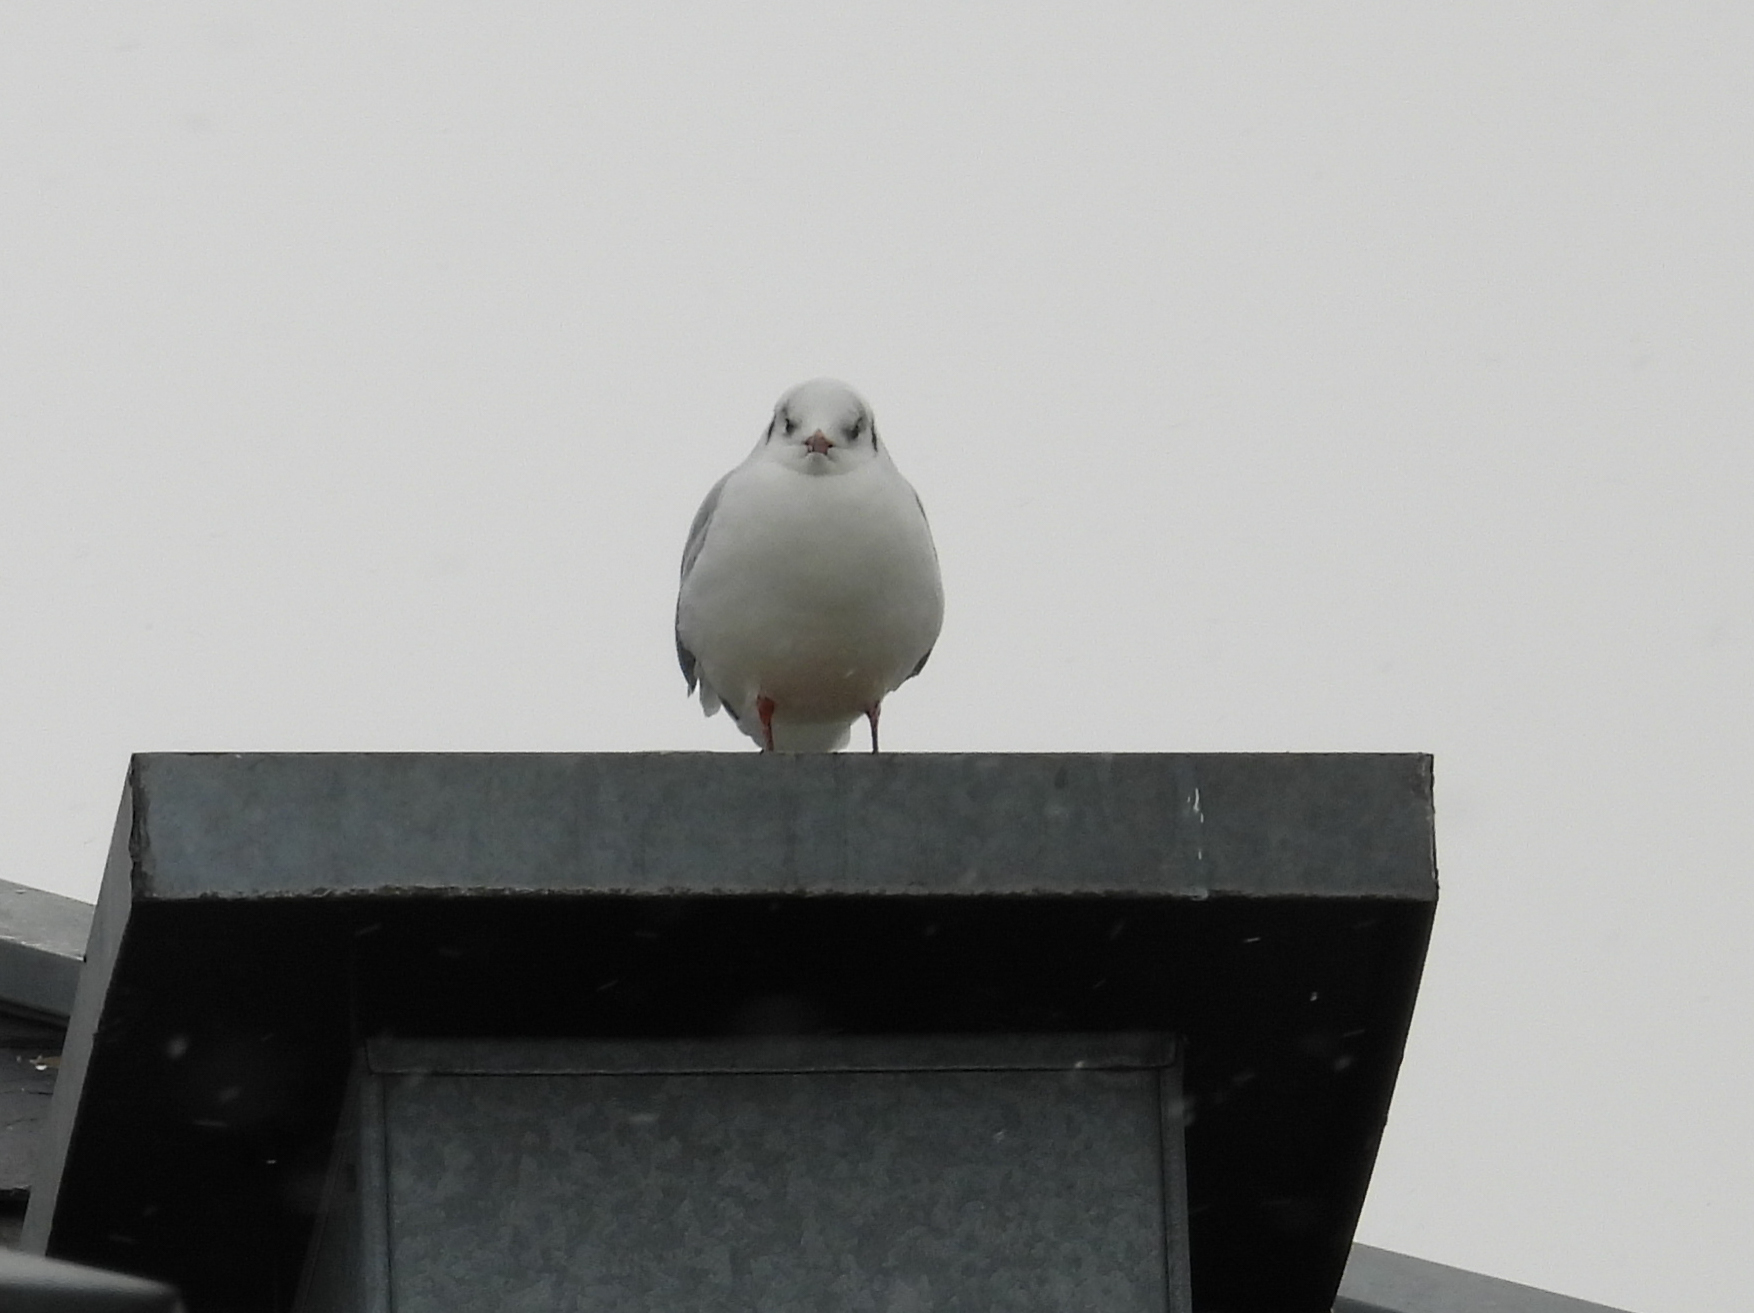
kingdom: Animalia
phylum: Chordata
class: Aves
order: Charadriiformes
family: Laridae
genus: Chroicocephalus
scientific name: Chroicocephalus ridibundus
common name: Black-headed gull
